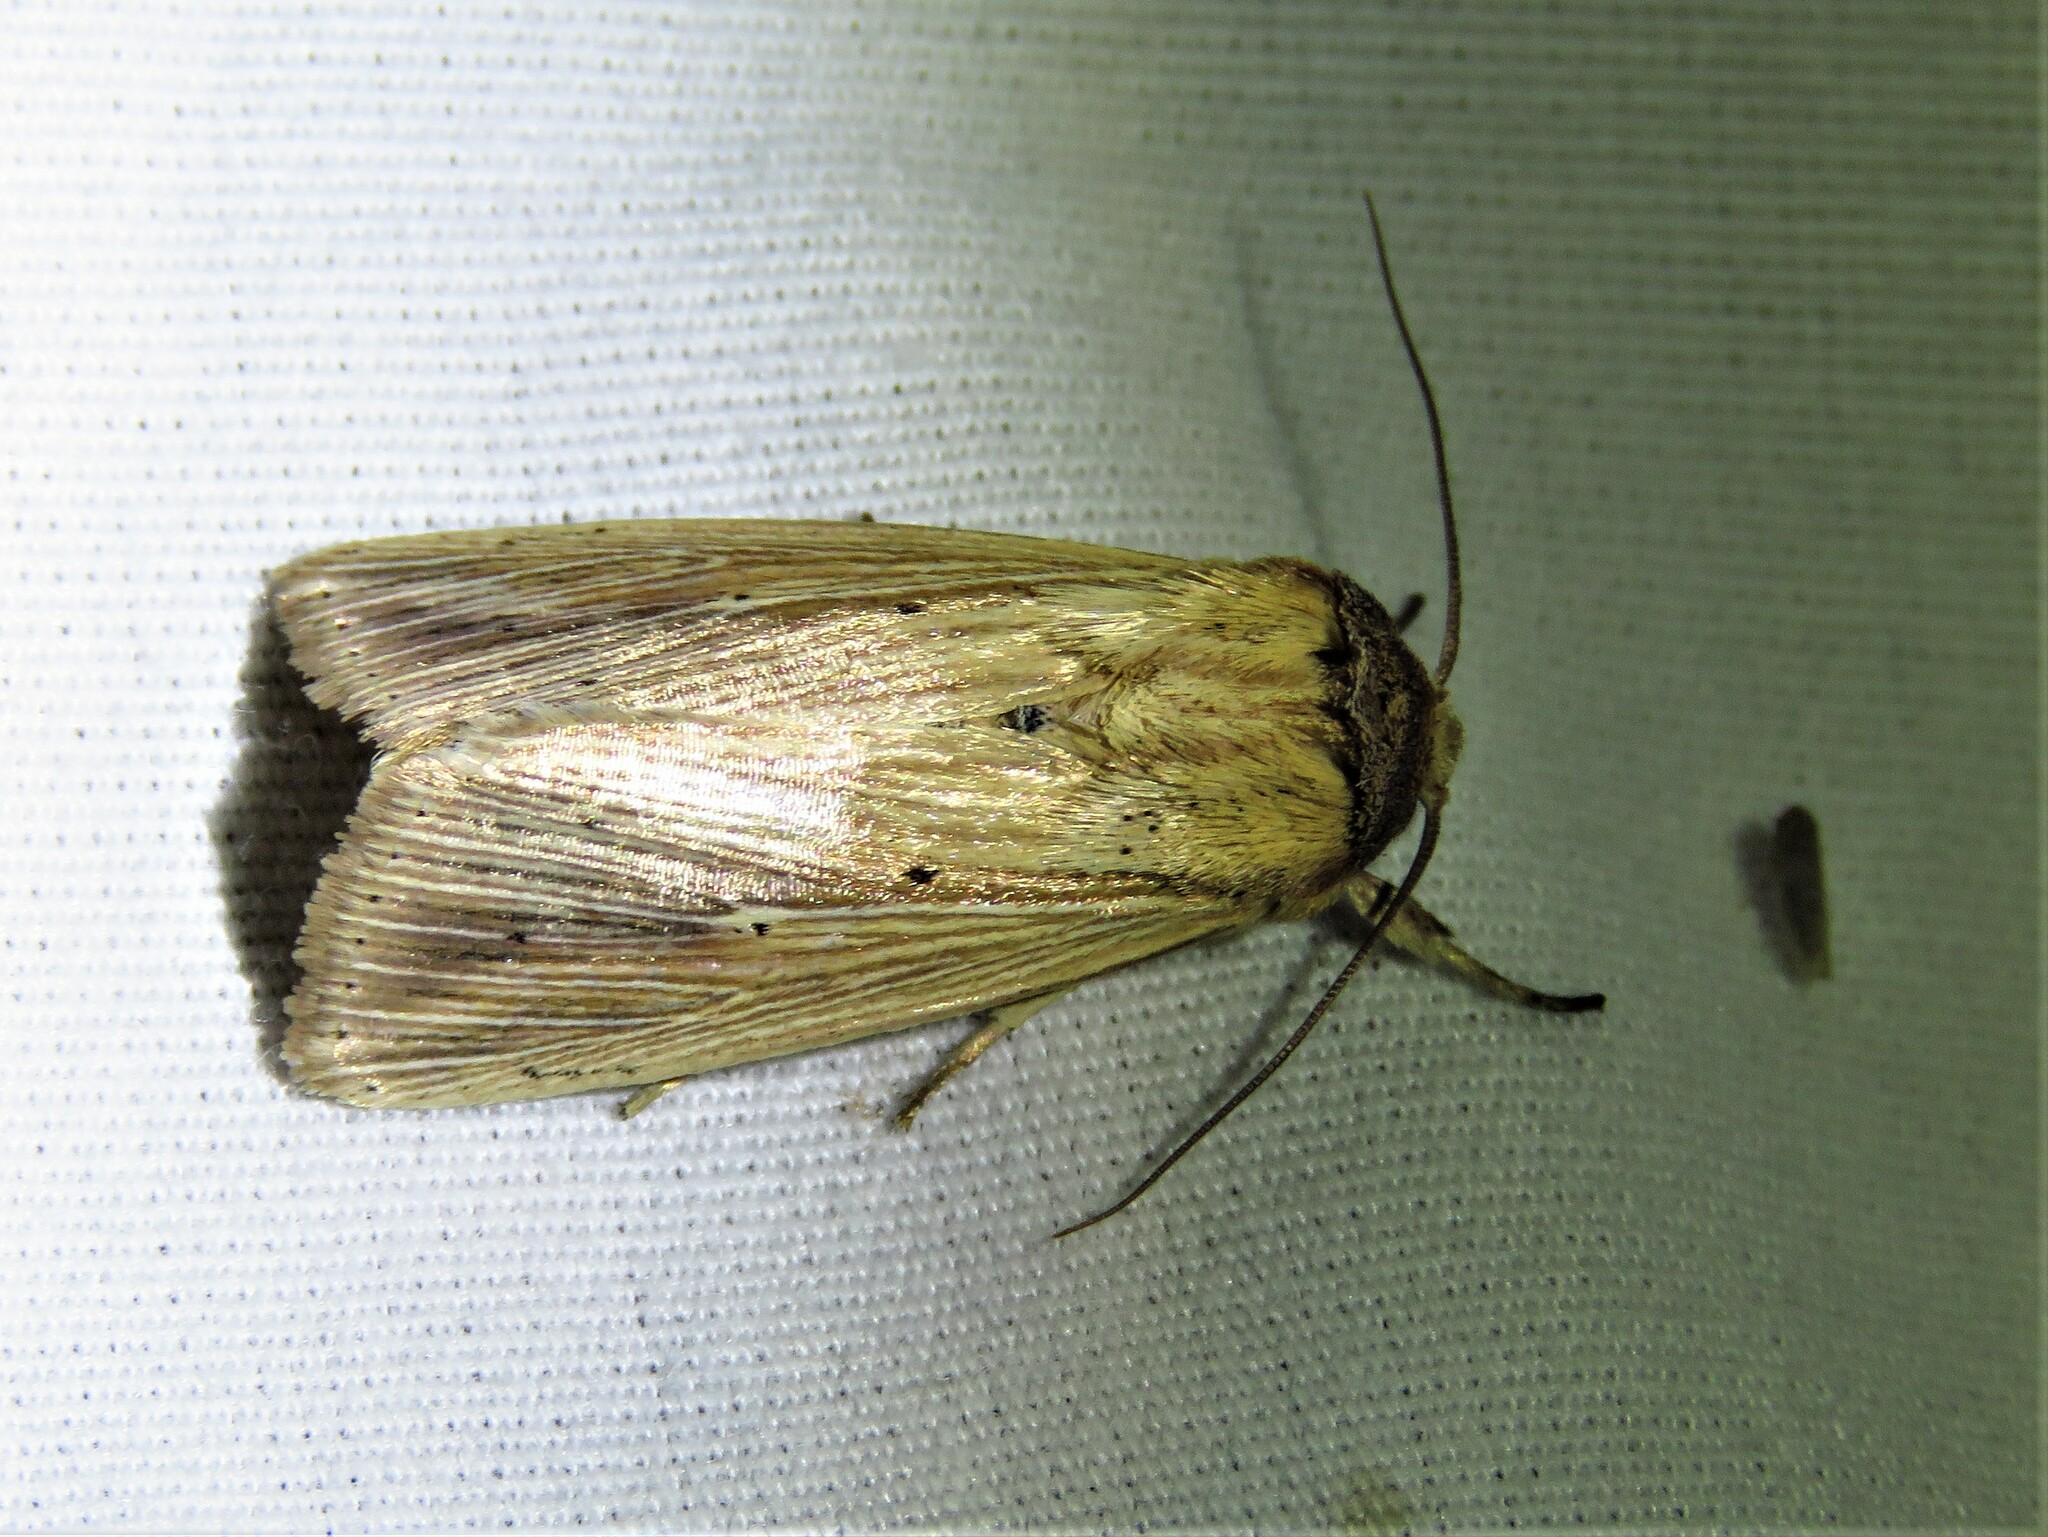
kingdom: Animalia
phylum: Arthropoda
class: Insecta
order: Lepidoptera
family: Noctuidae
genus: Leucania
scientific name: Leucania adjuta
